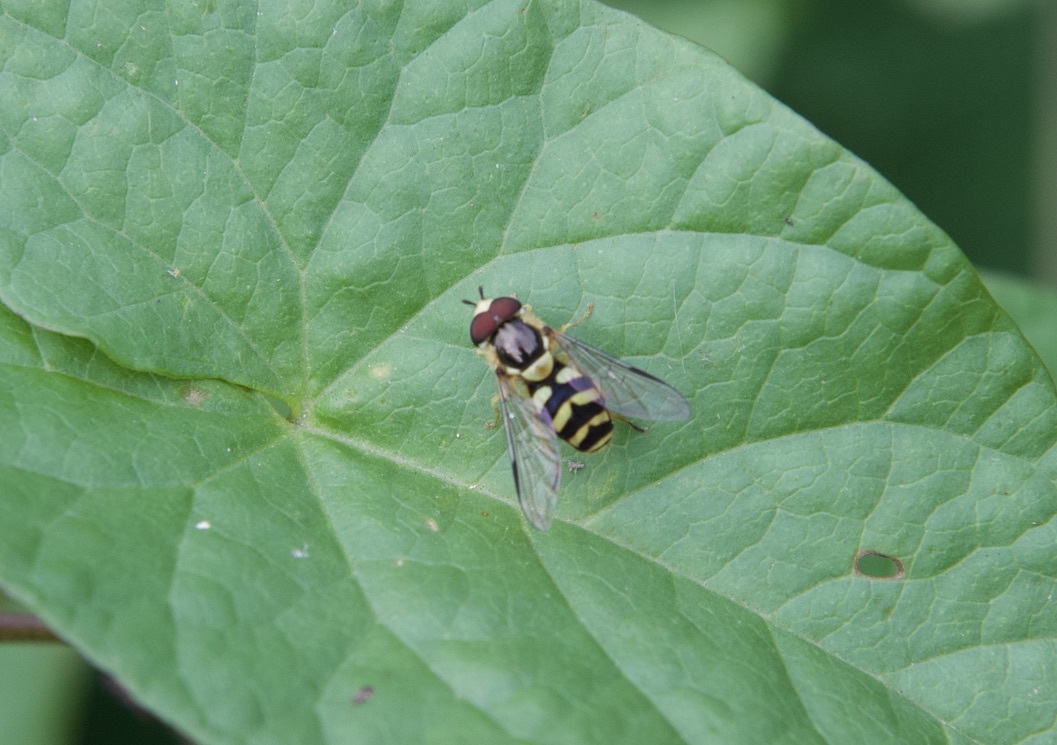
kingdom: Animalia
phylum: Arthropoda
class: Insecta
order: Diptera
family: Syrphidae
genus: Dasysyrphus
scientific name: Dasysyrphus albostriatus
